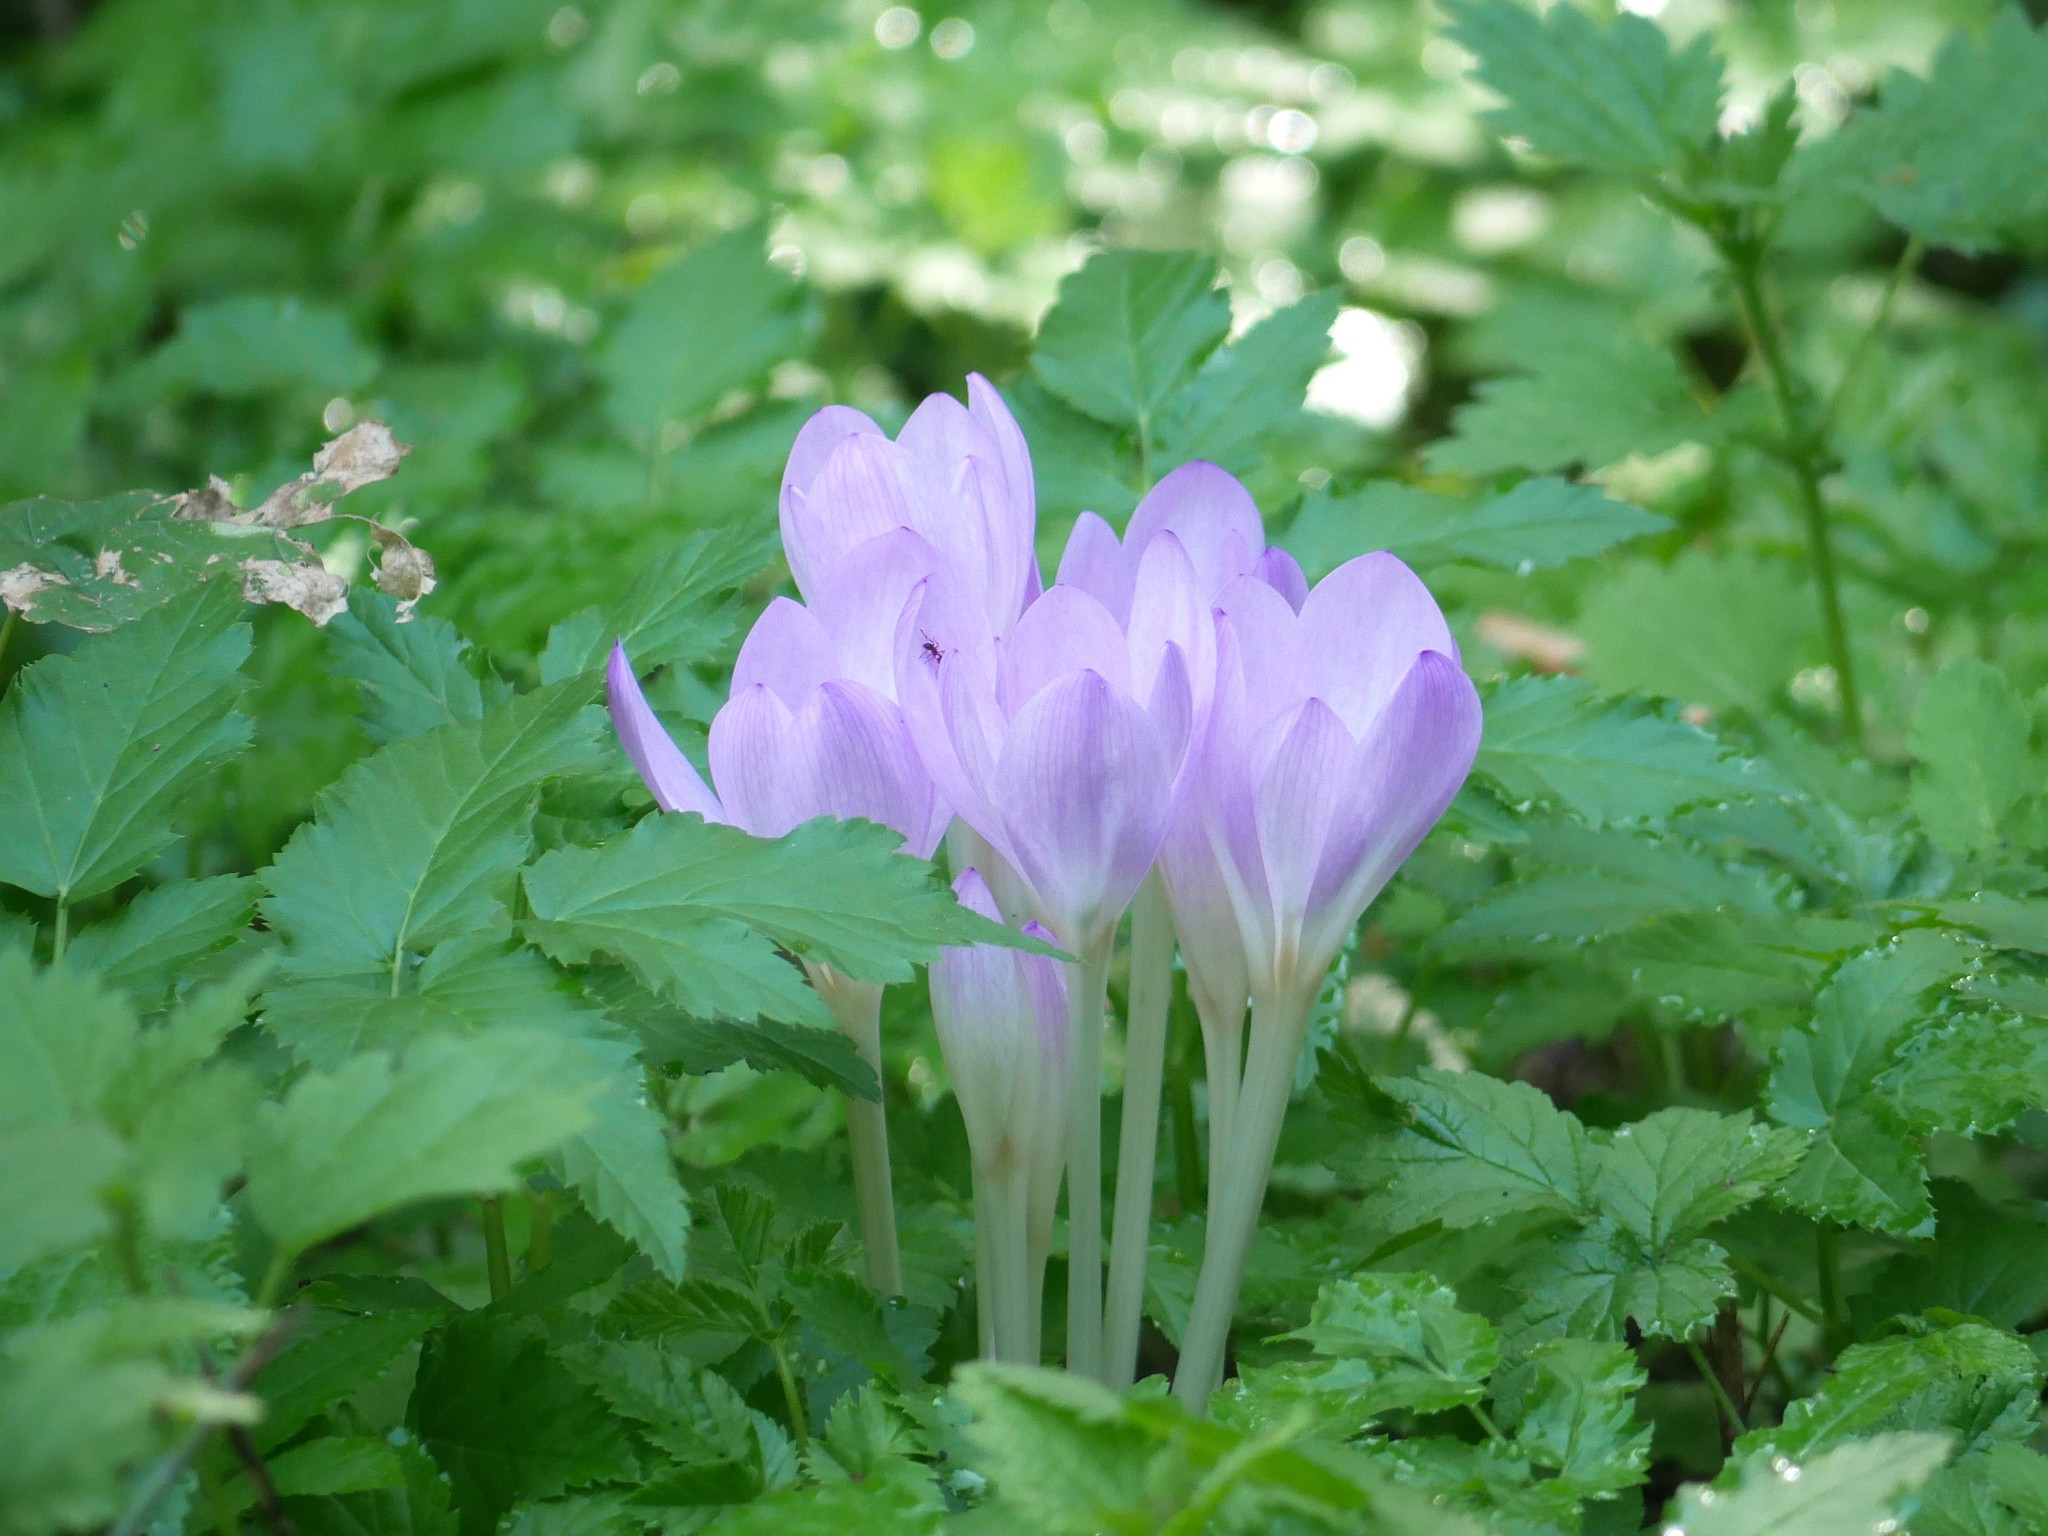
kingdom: Plantae
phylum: Tracheophyta
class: Liliopsida
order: Liliales
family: Colchicaceae
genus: Colchicum
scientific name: Colchicum autumnale
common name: Autumn crocus
